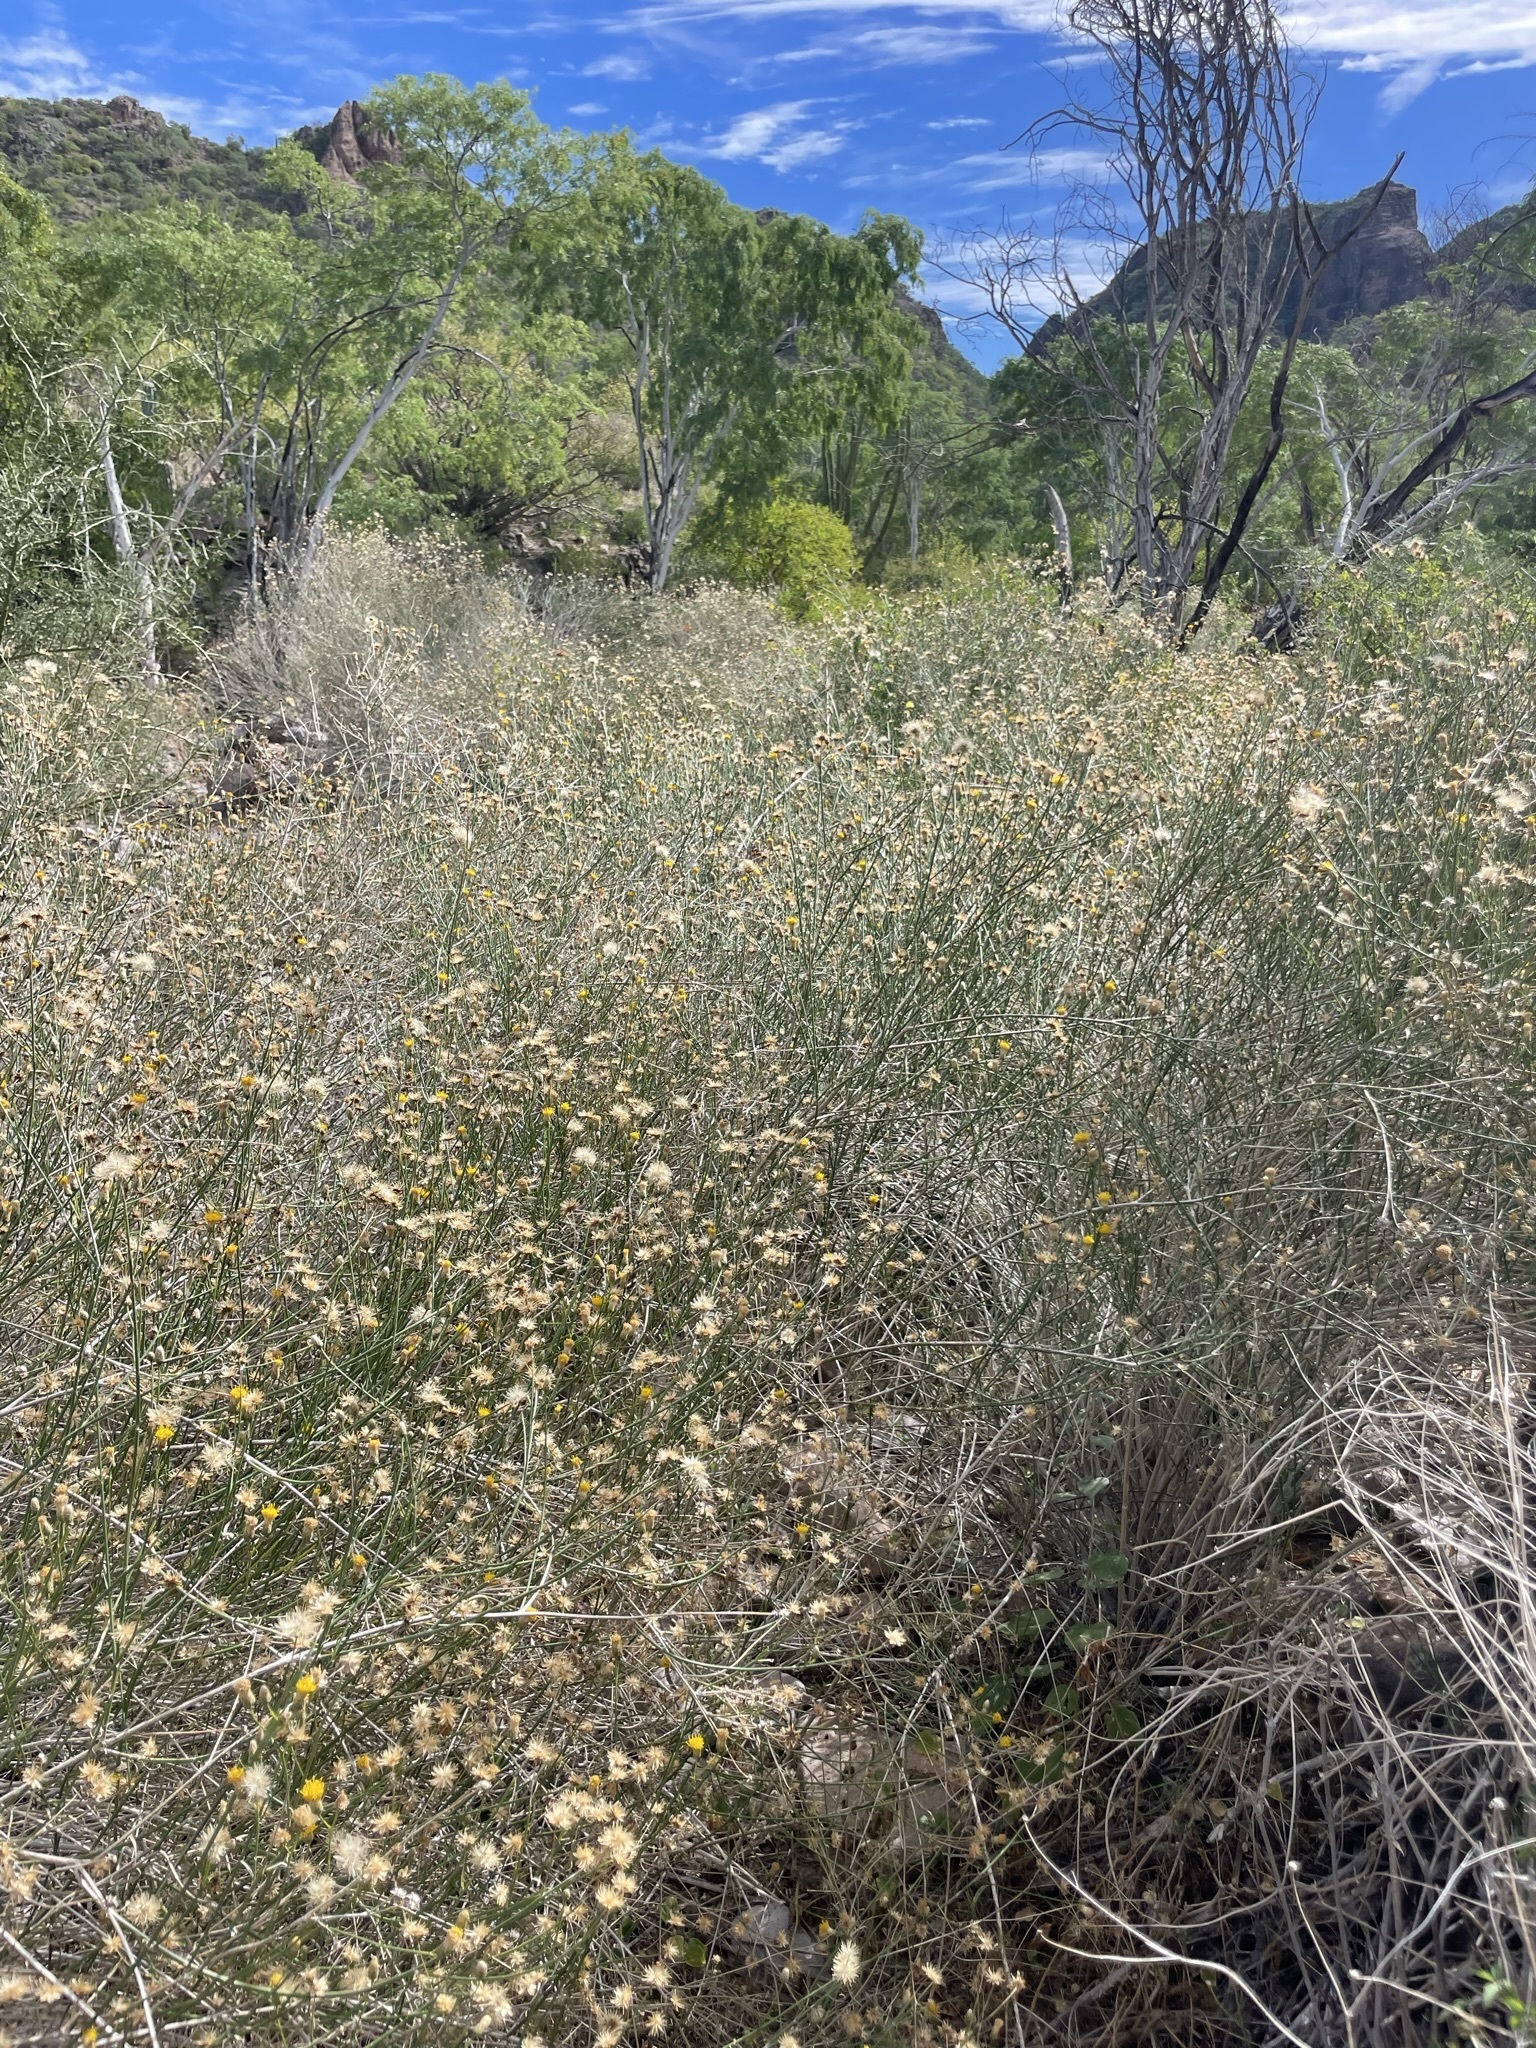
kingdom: Plantae
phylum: Tracheophyta
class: Magnoliopsida
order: Asterales
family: Asteraceae
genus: Bebbia
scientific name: Bebbia juncea
